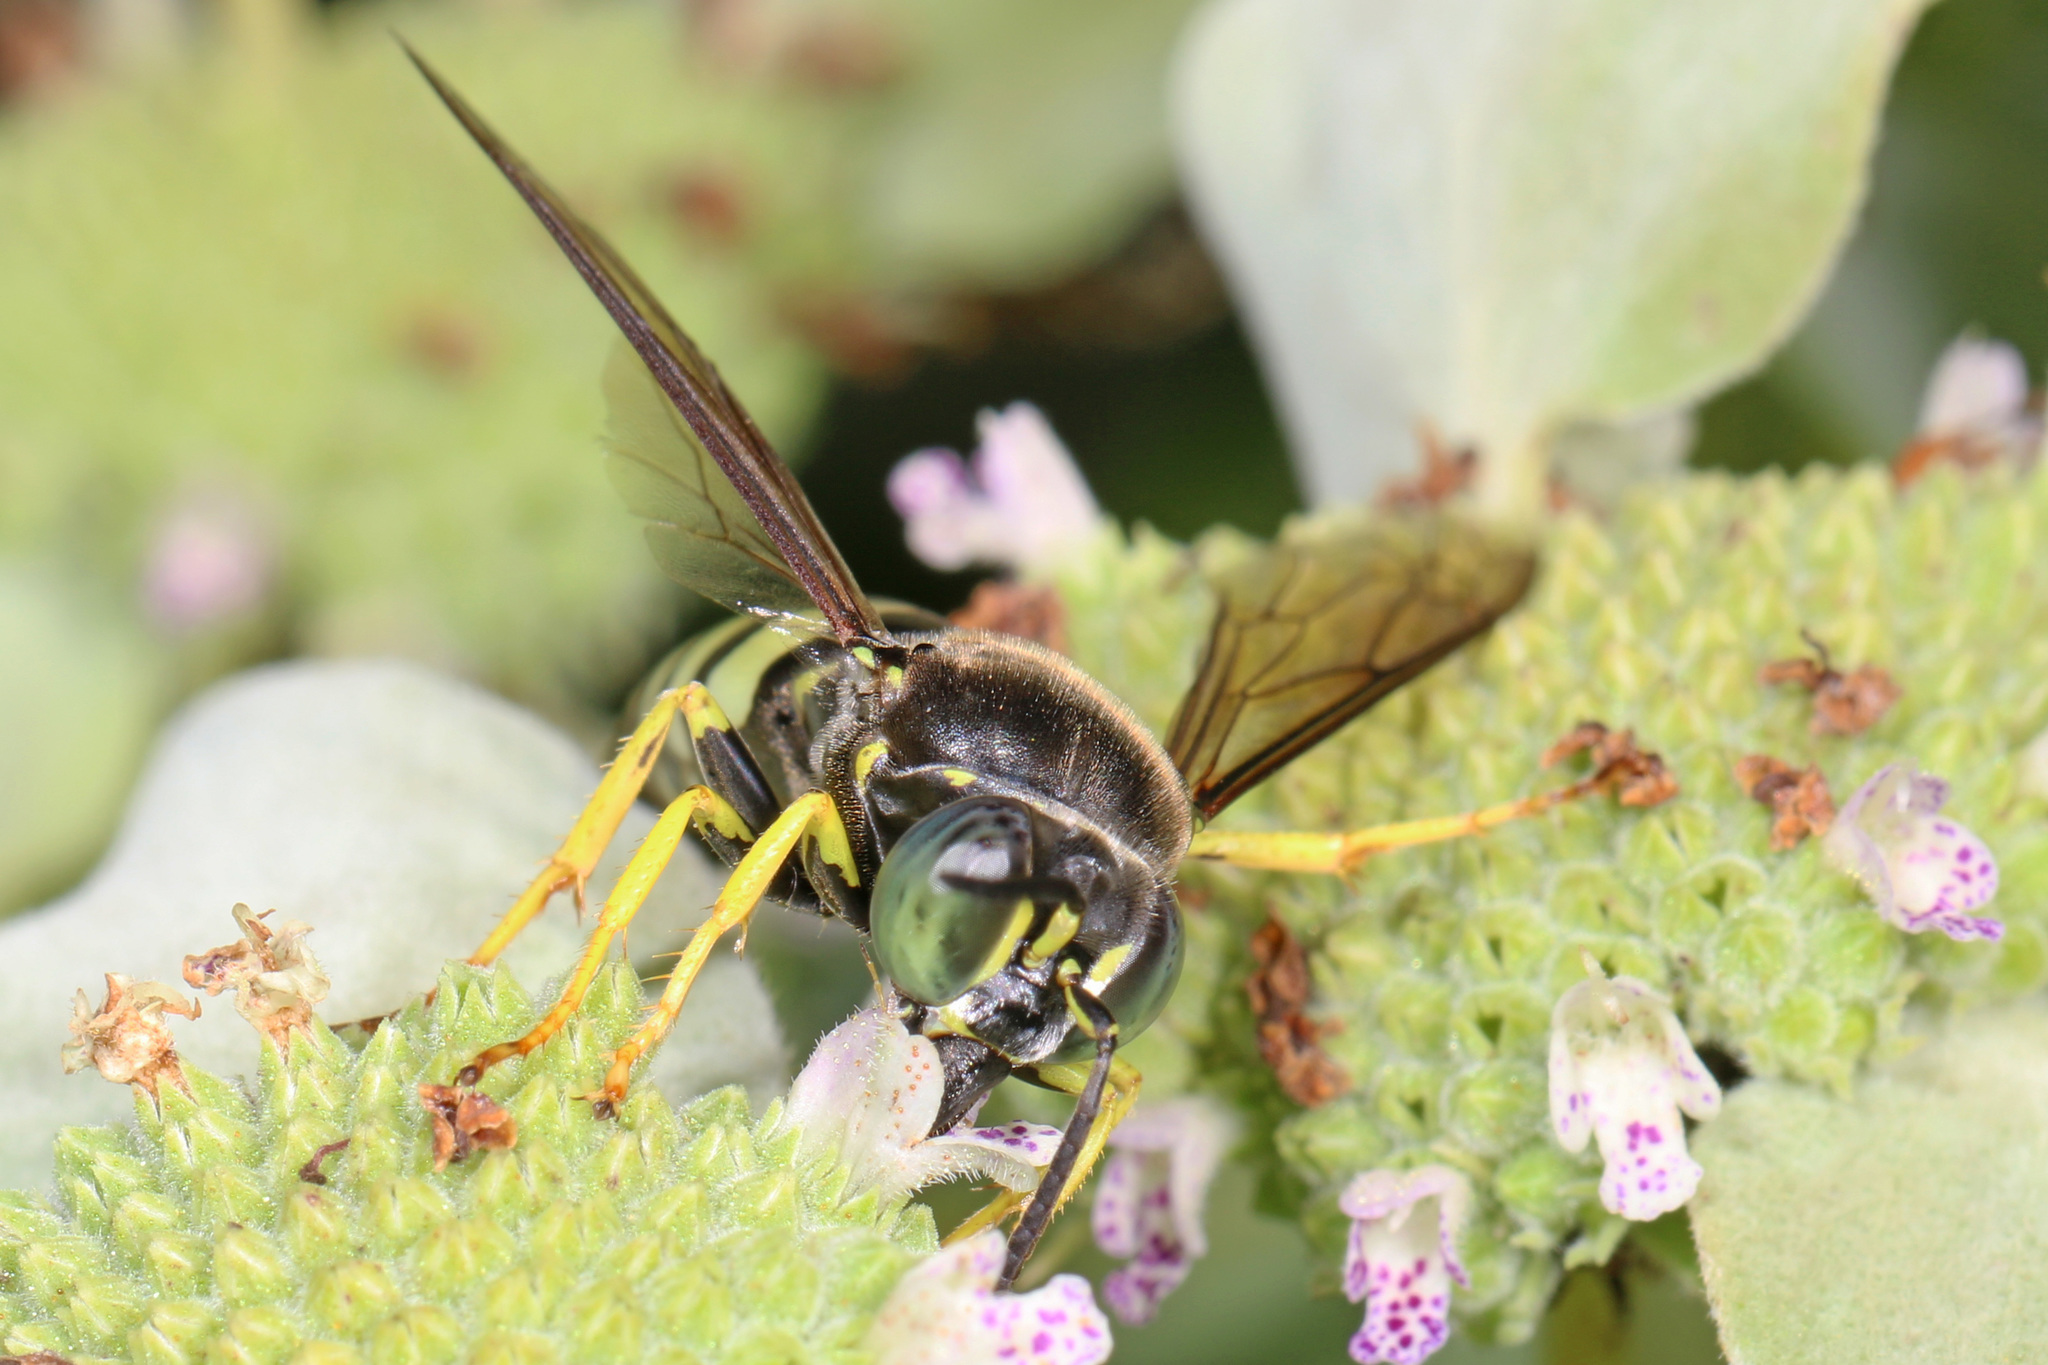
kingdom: Animalia
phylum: Arthropoda
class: Insecta
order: Hymenoptera
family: Crabronidae
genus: Bicyrtes
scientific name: Bicyrtes quadrifasciatus
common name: Four-banded stink bug hunter wasp
